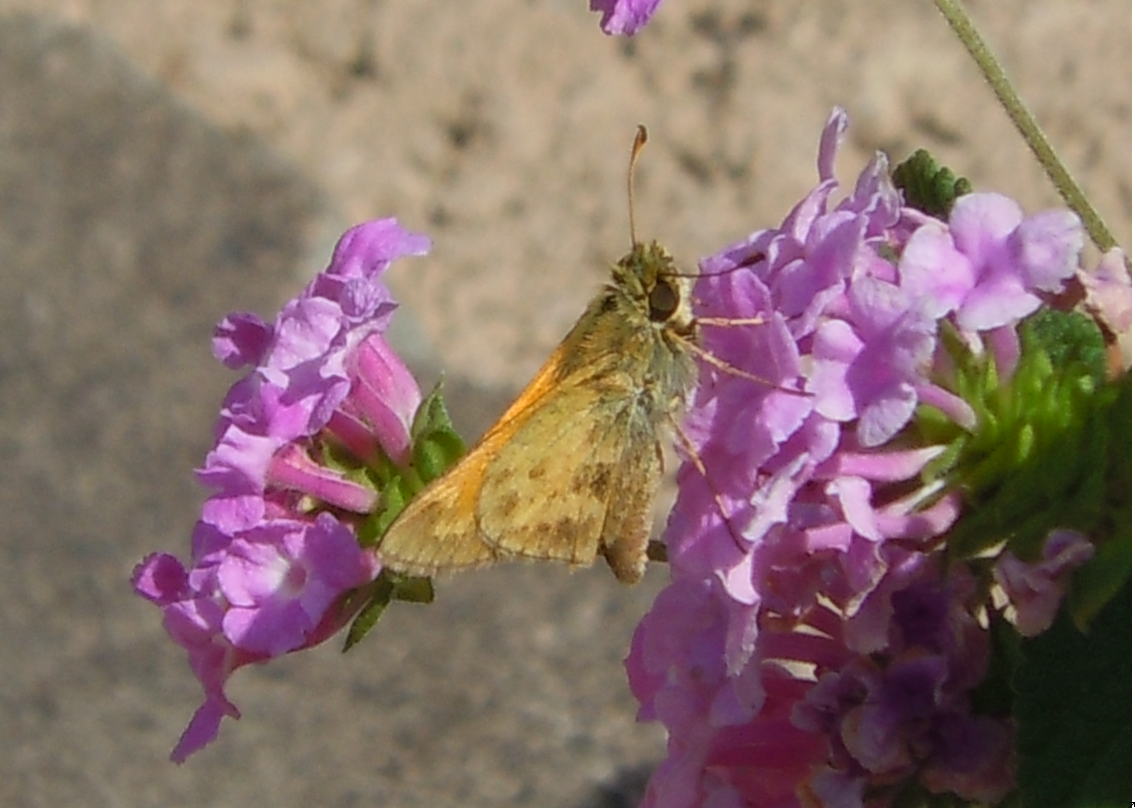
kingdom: Animalia
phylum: Arthropoda
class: Insecta
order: Lepidoptera
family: Hesperiidae
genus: Atalopedes
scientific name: Atalopedes campestris
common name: Sachem
